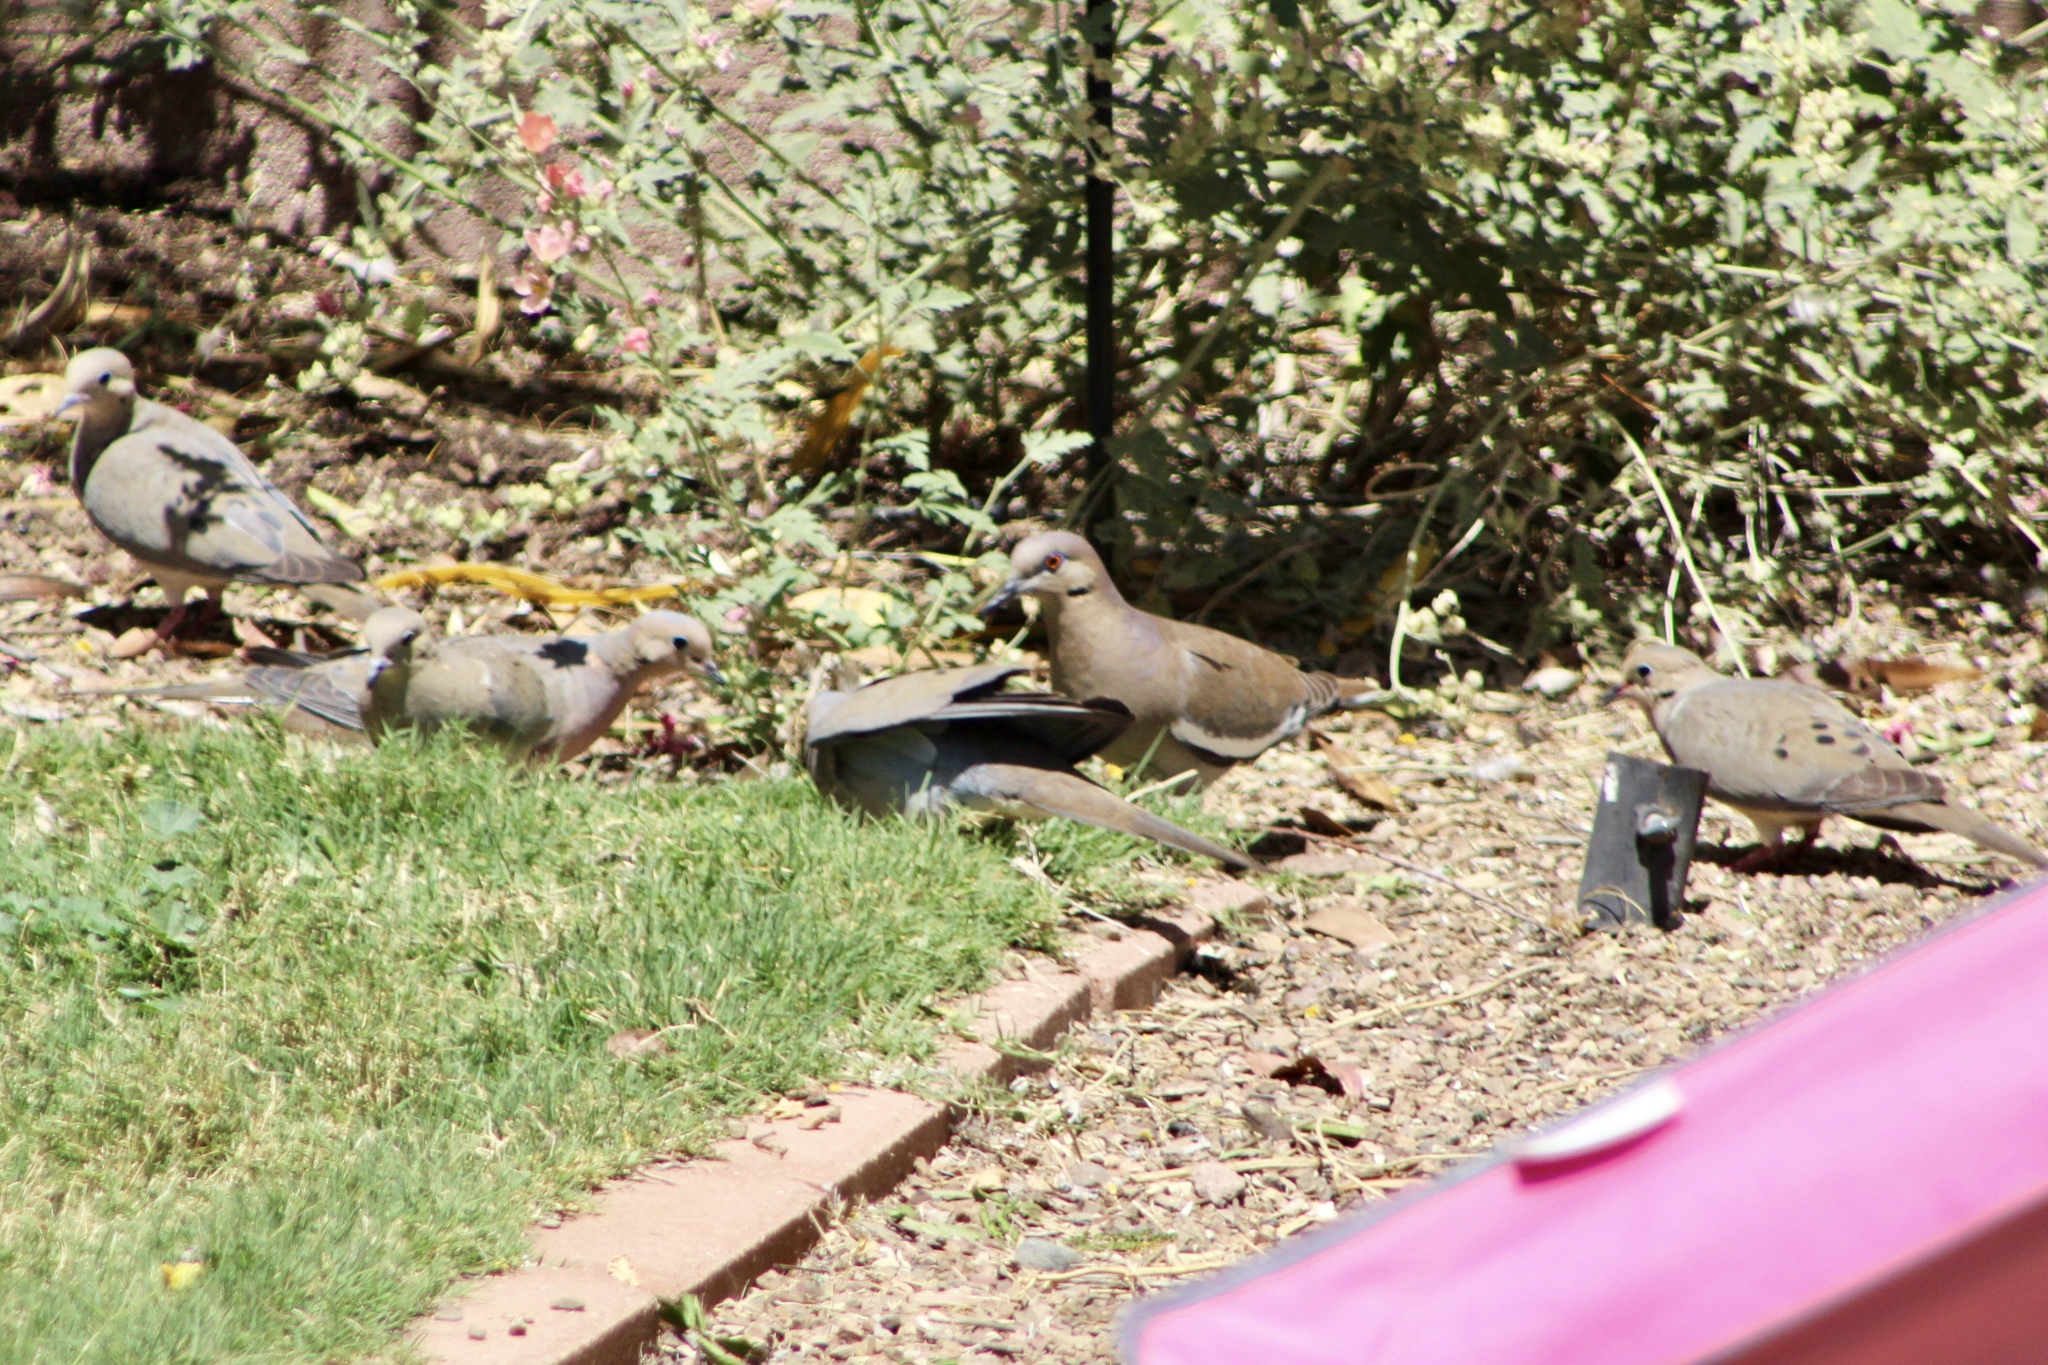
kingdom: Animalia
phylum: Chordata
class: Aves
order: Columbiformes
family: Columbidae
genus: Zenaida
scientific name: Zenaida macroura
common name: Mourning dove
